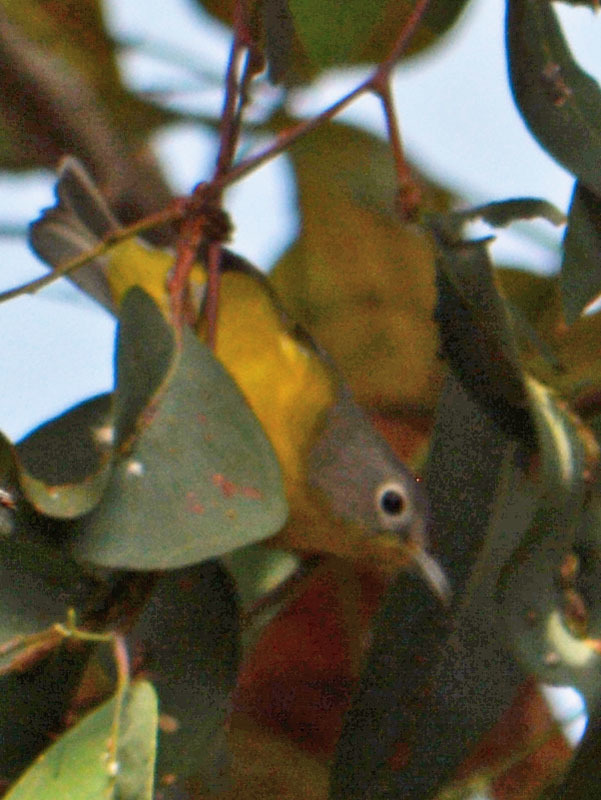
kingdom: Animalia
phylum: Chordata
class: Aves
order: Passeriformes
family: Parulidae
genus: Leiothlypis
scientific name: Leiothlypis ruficapilla
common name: Nashville warbler
